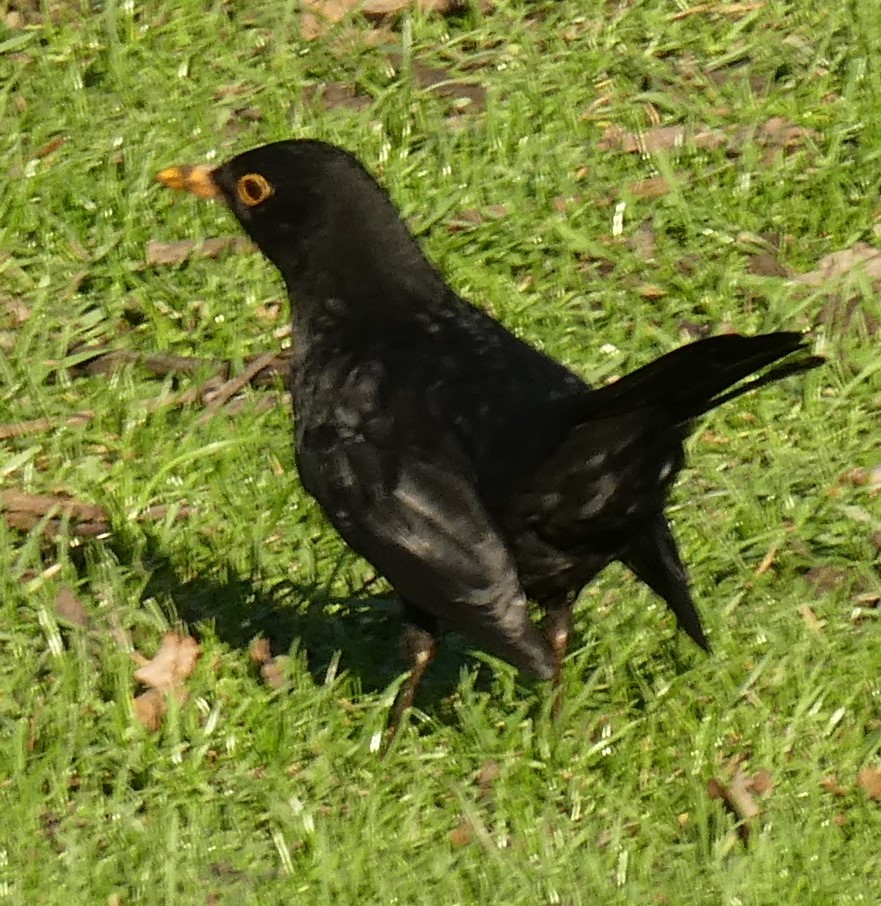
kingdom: Animalia
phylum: Chordata
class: Aves
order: Passeriformes
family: Turdidae
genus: Turdus
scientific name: Turdus merula
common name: Common blackbird
